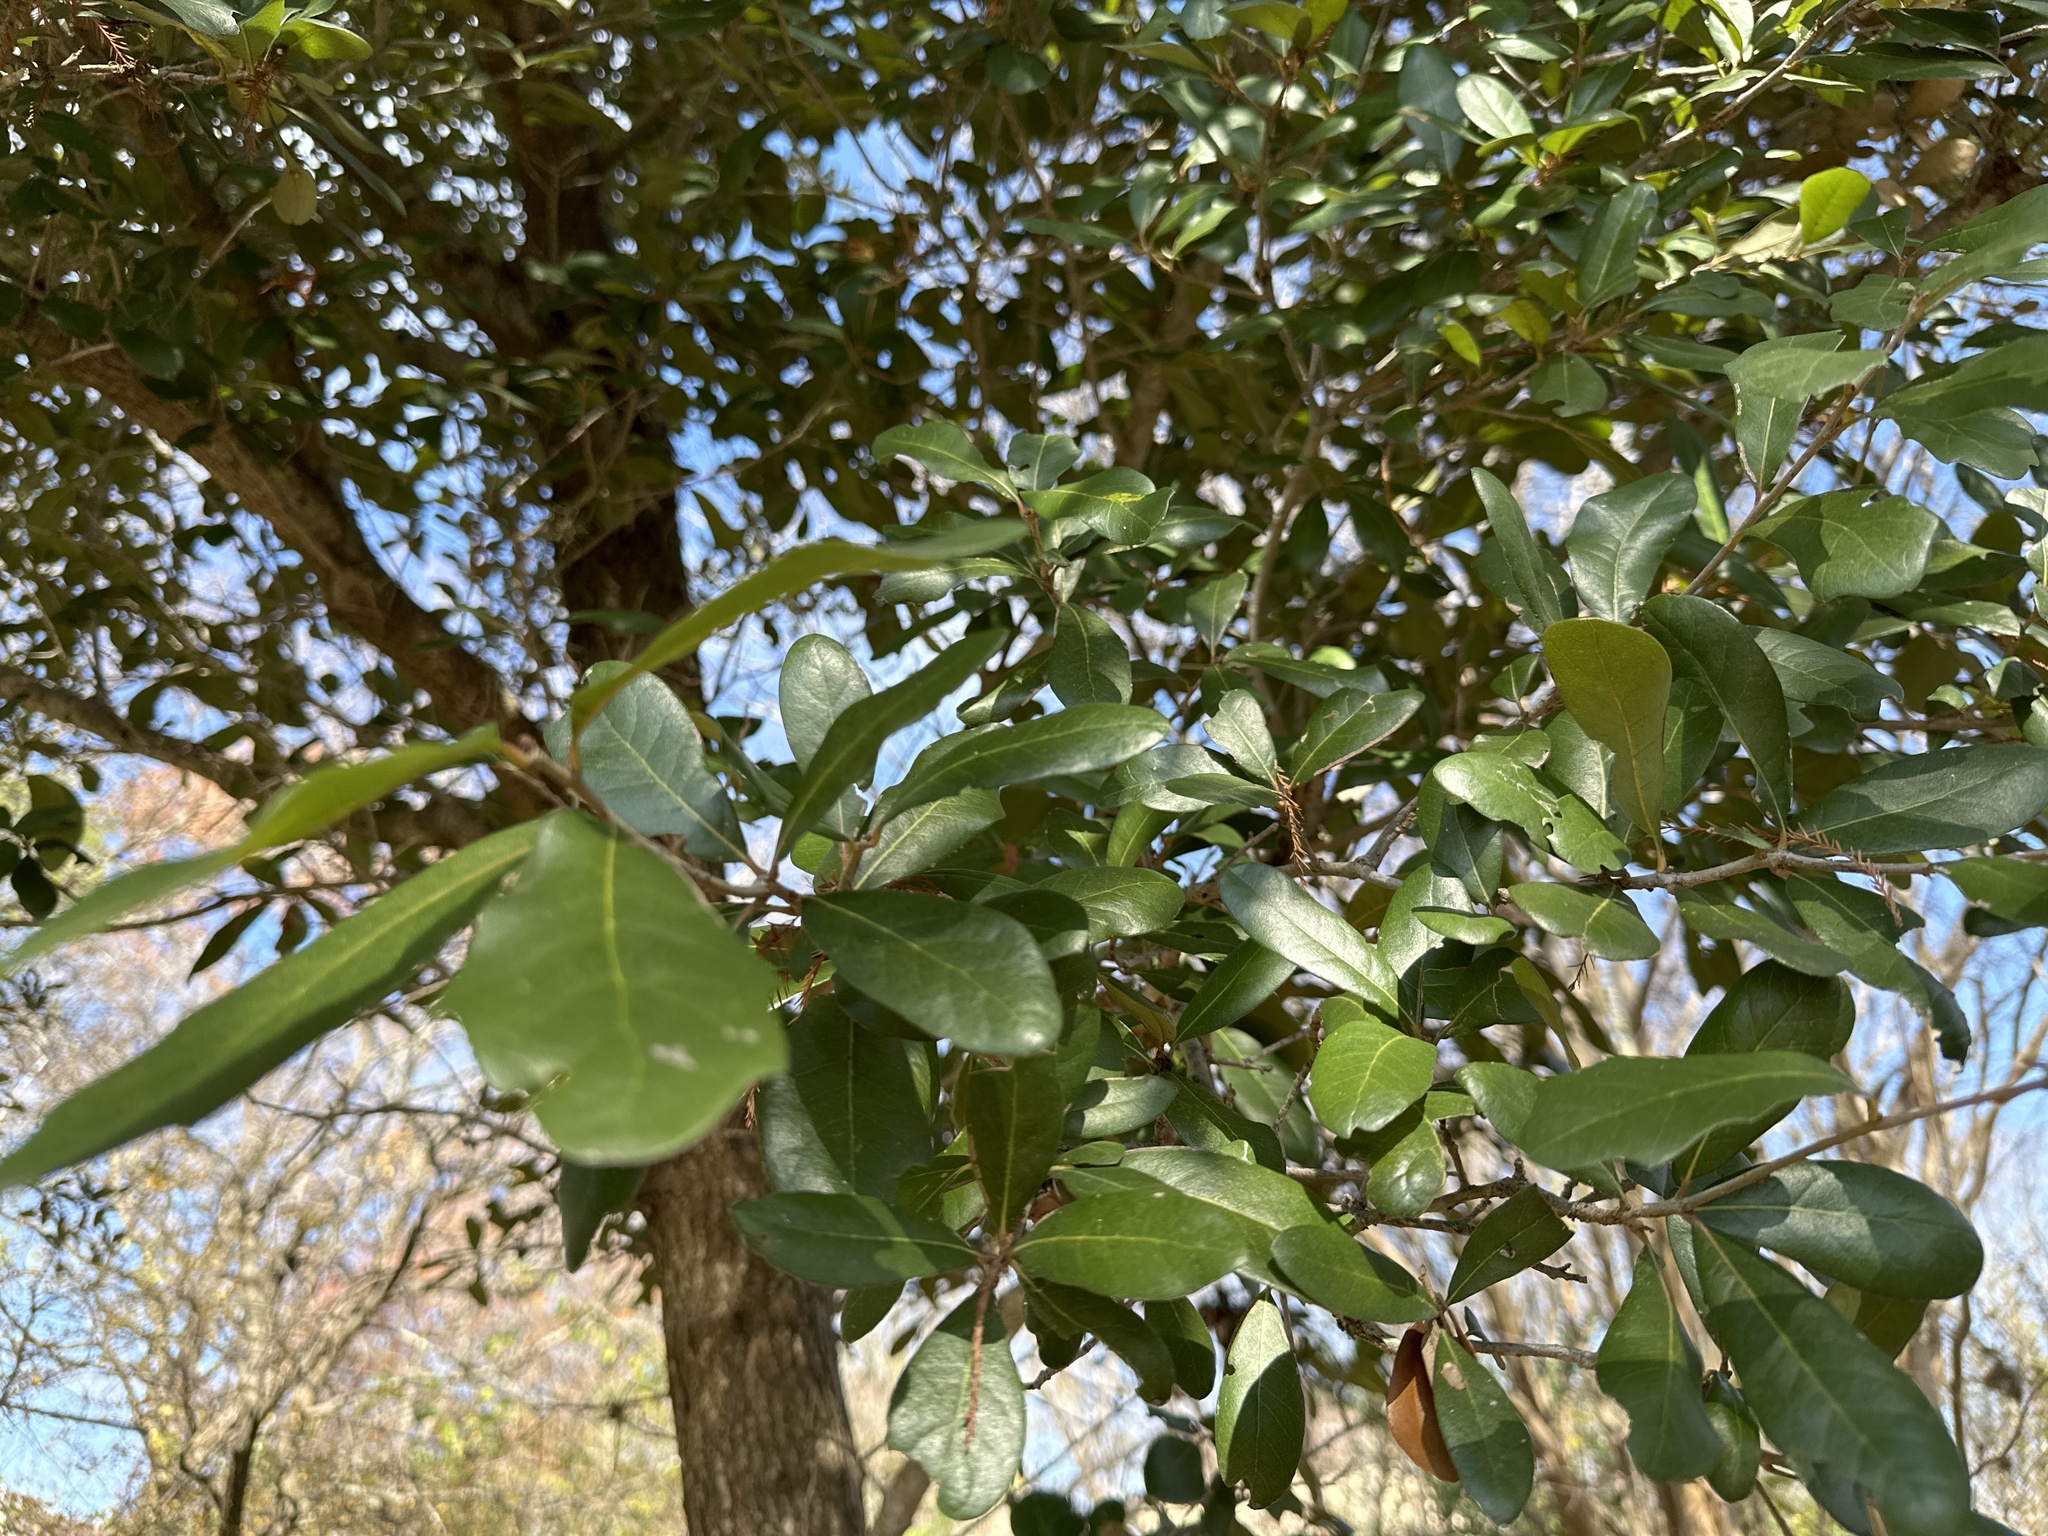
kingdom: Plantae
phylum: Tracheophyta
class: Magnoliopsida
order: Fagales
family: Fagaceae
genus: Quercus
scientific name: Quercus virginiana
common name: Southern live oak
